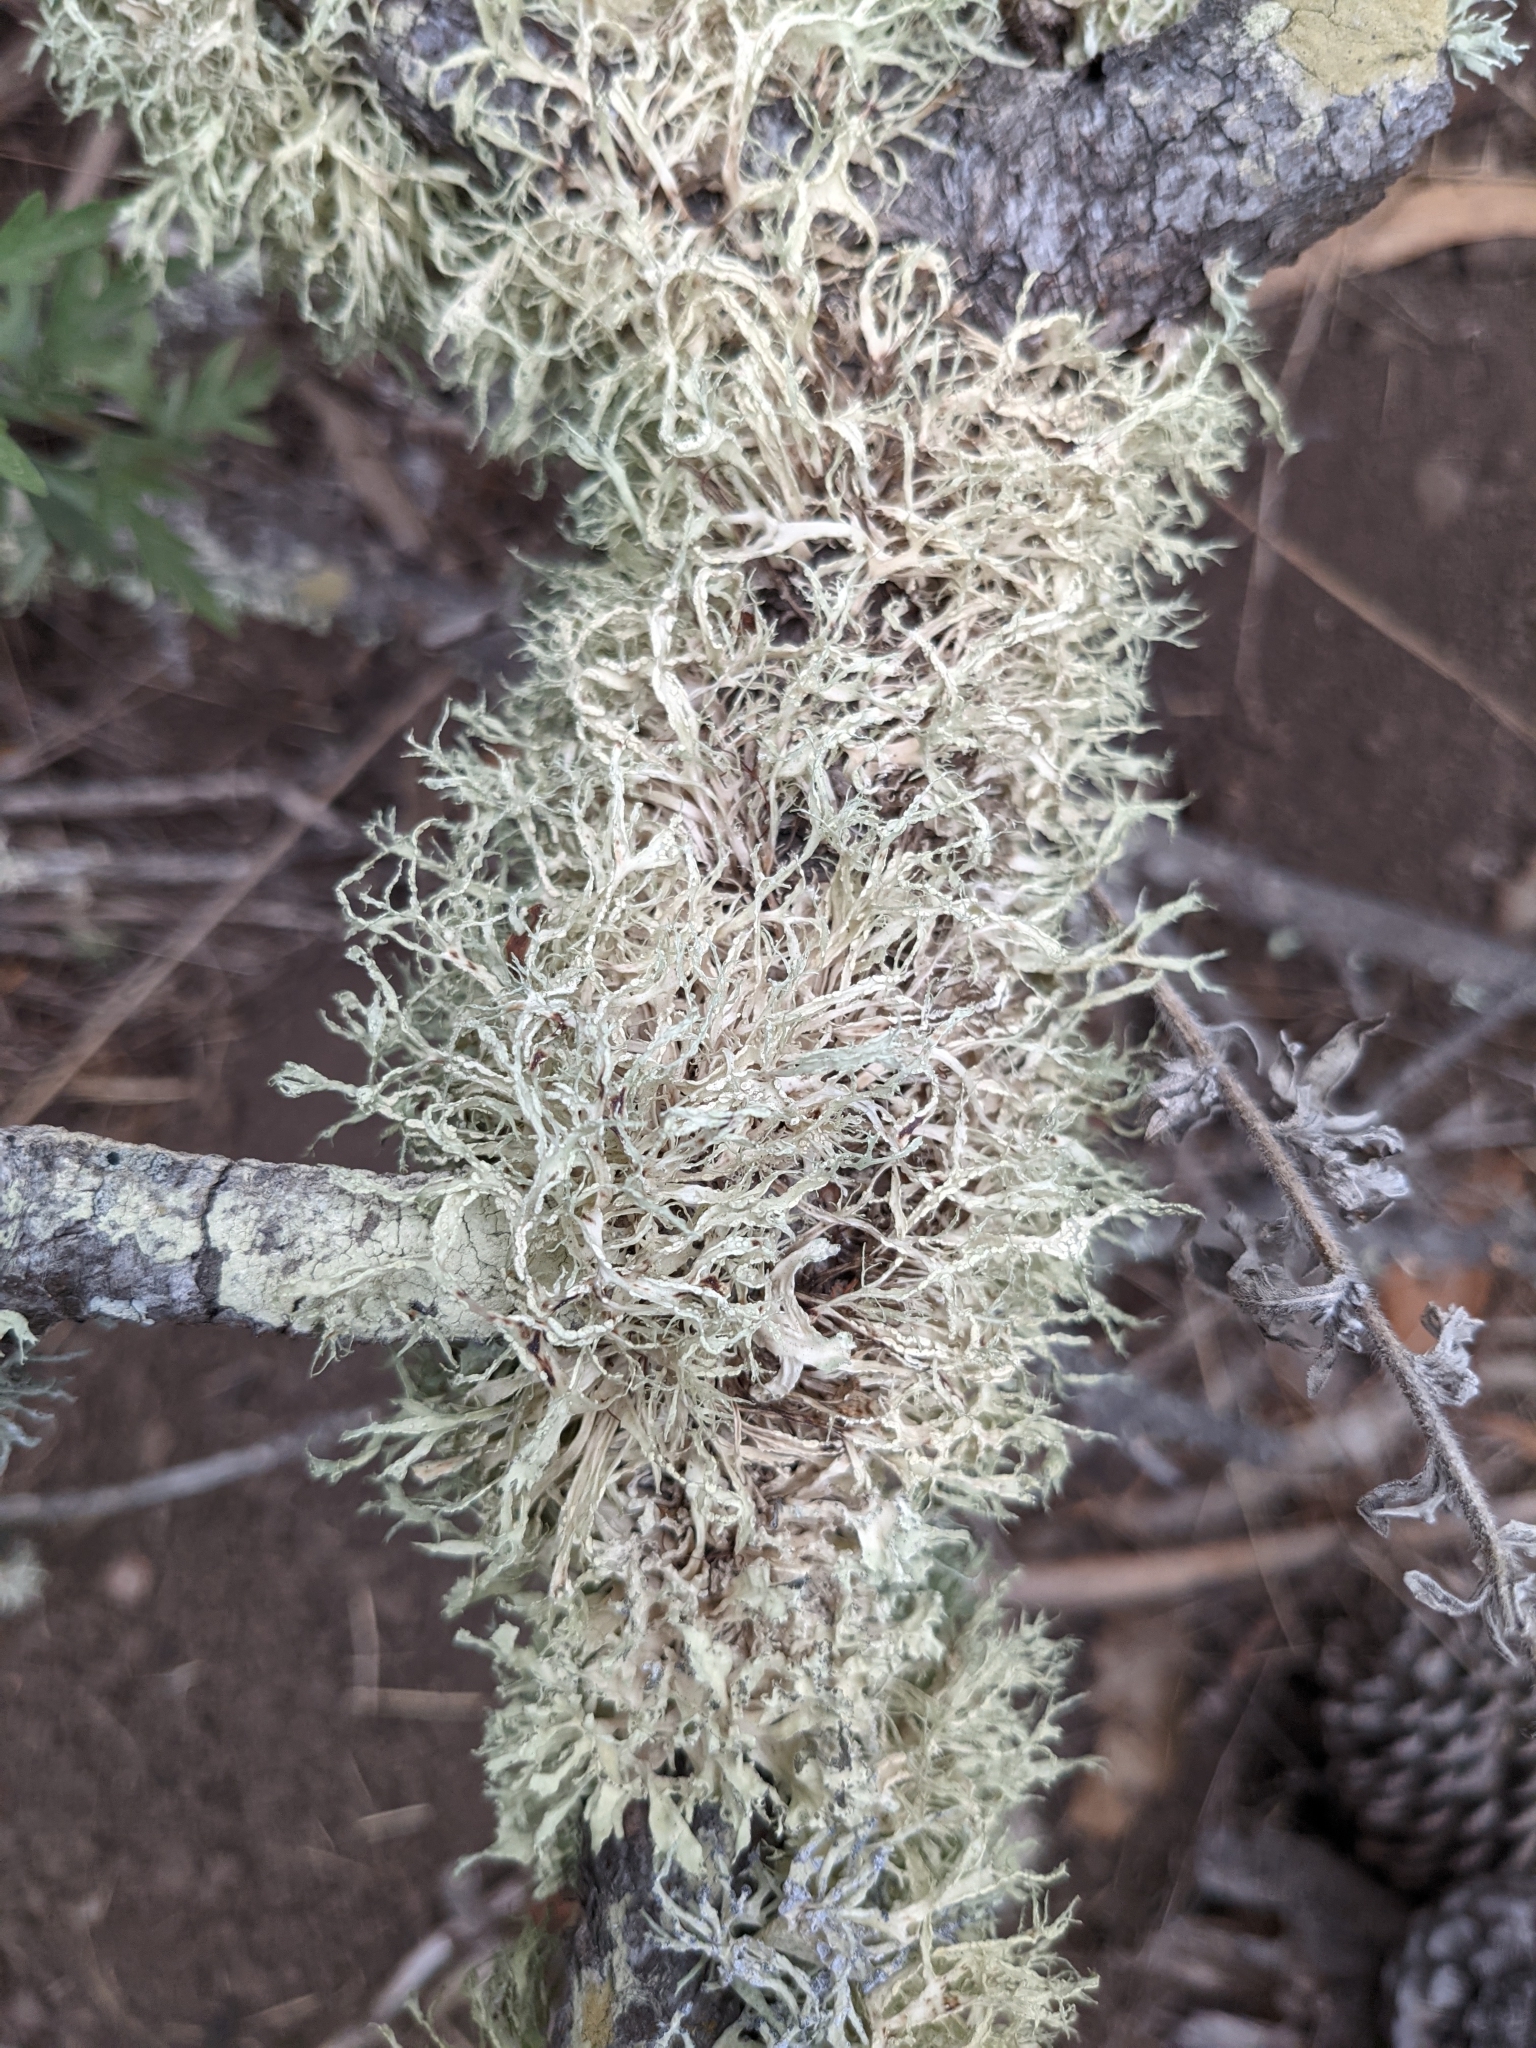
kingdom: Fungi
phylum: Ascomycota
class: Lecanoromycetes
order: Lecanorales
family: Ramalinaceae
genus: Ramalina
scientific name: Ramalina farinacea
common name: Farinose cartilage lichen
